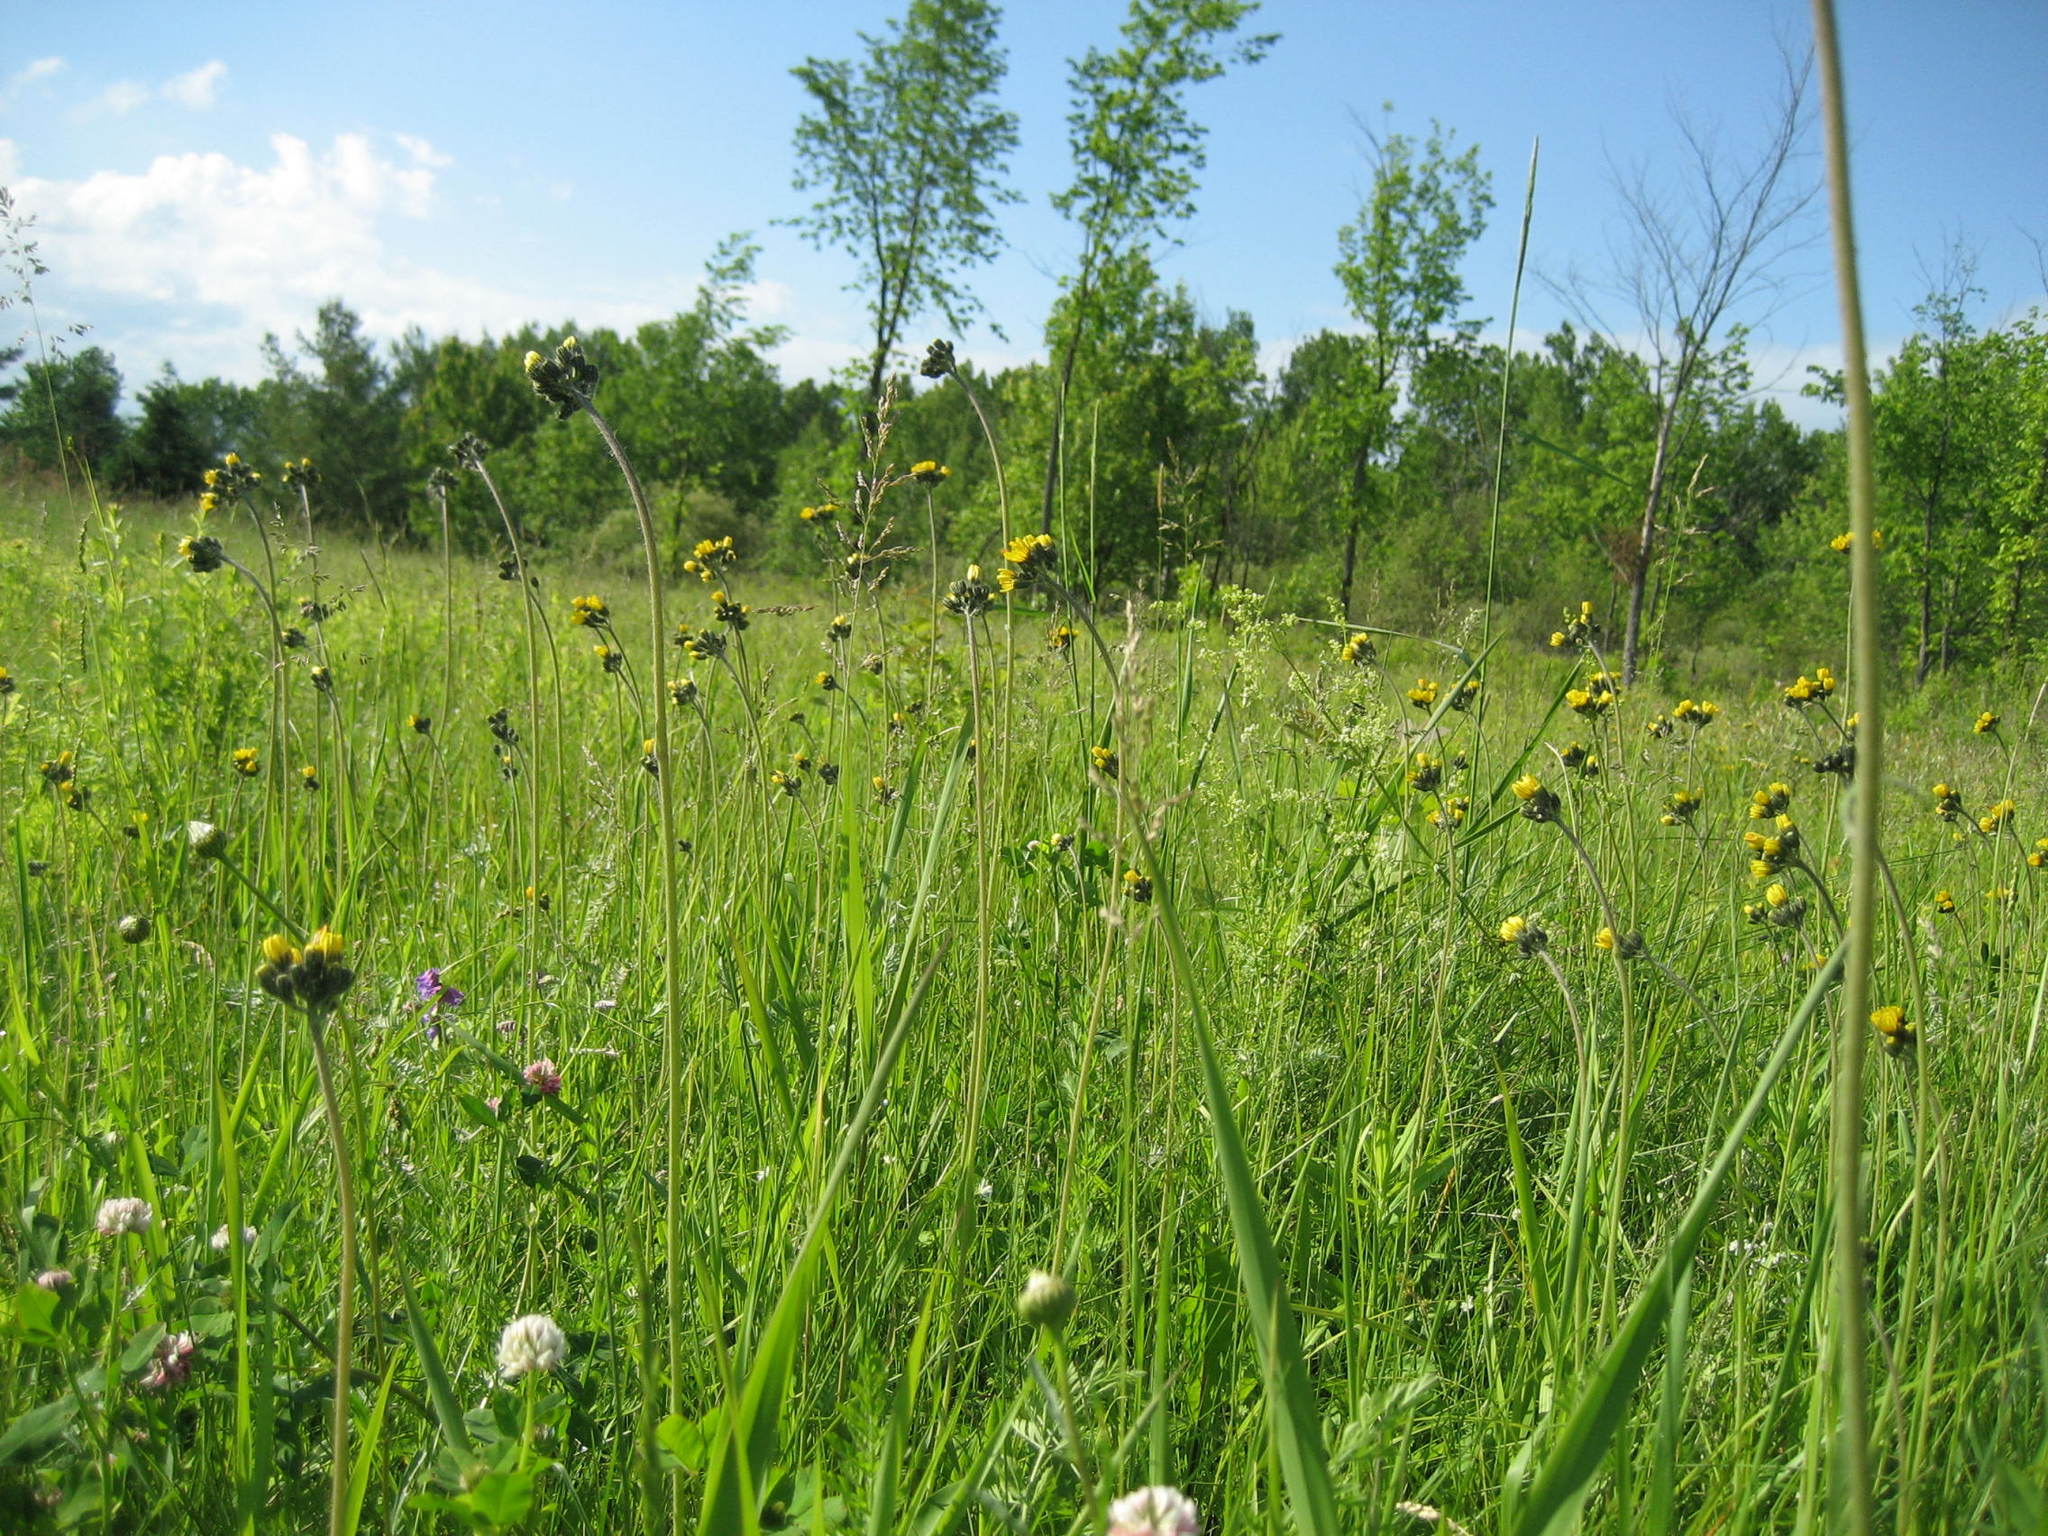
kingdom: Plantae
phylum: Tracheophyta
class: Magnoliopsida
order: Asterales
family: Asteraceae
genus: Pilosella
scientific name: Pilosella caespitosa
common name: Yellow fox-and-cubs
